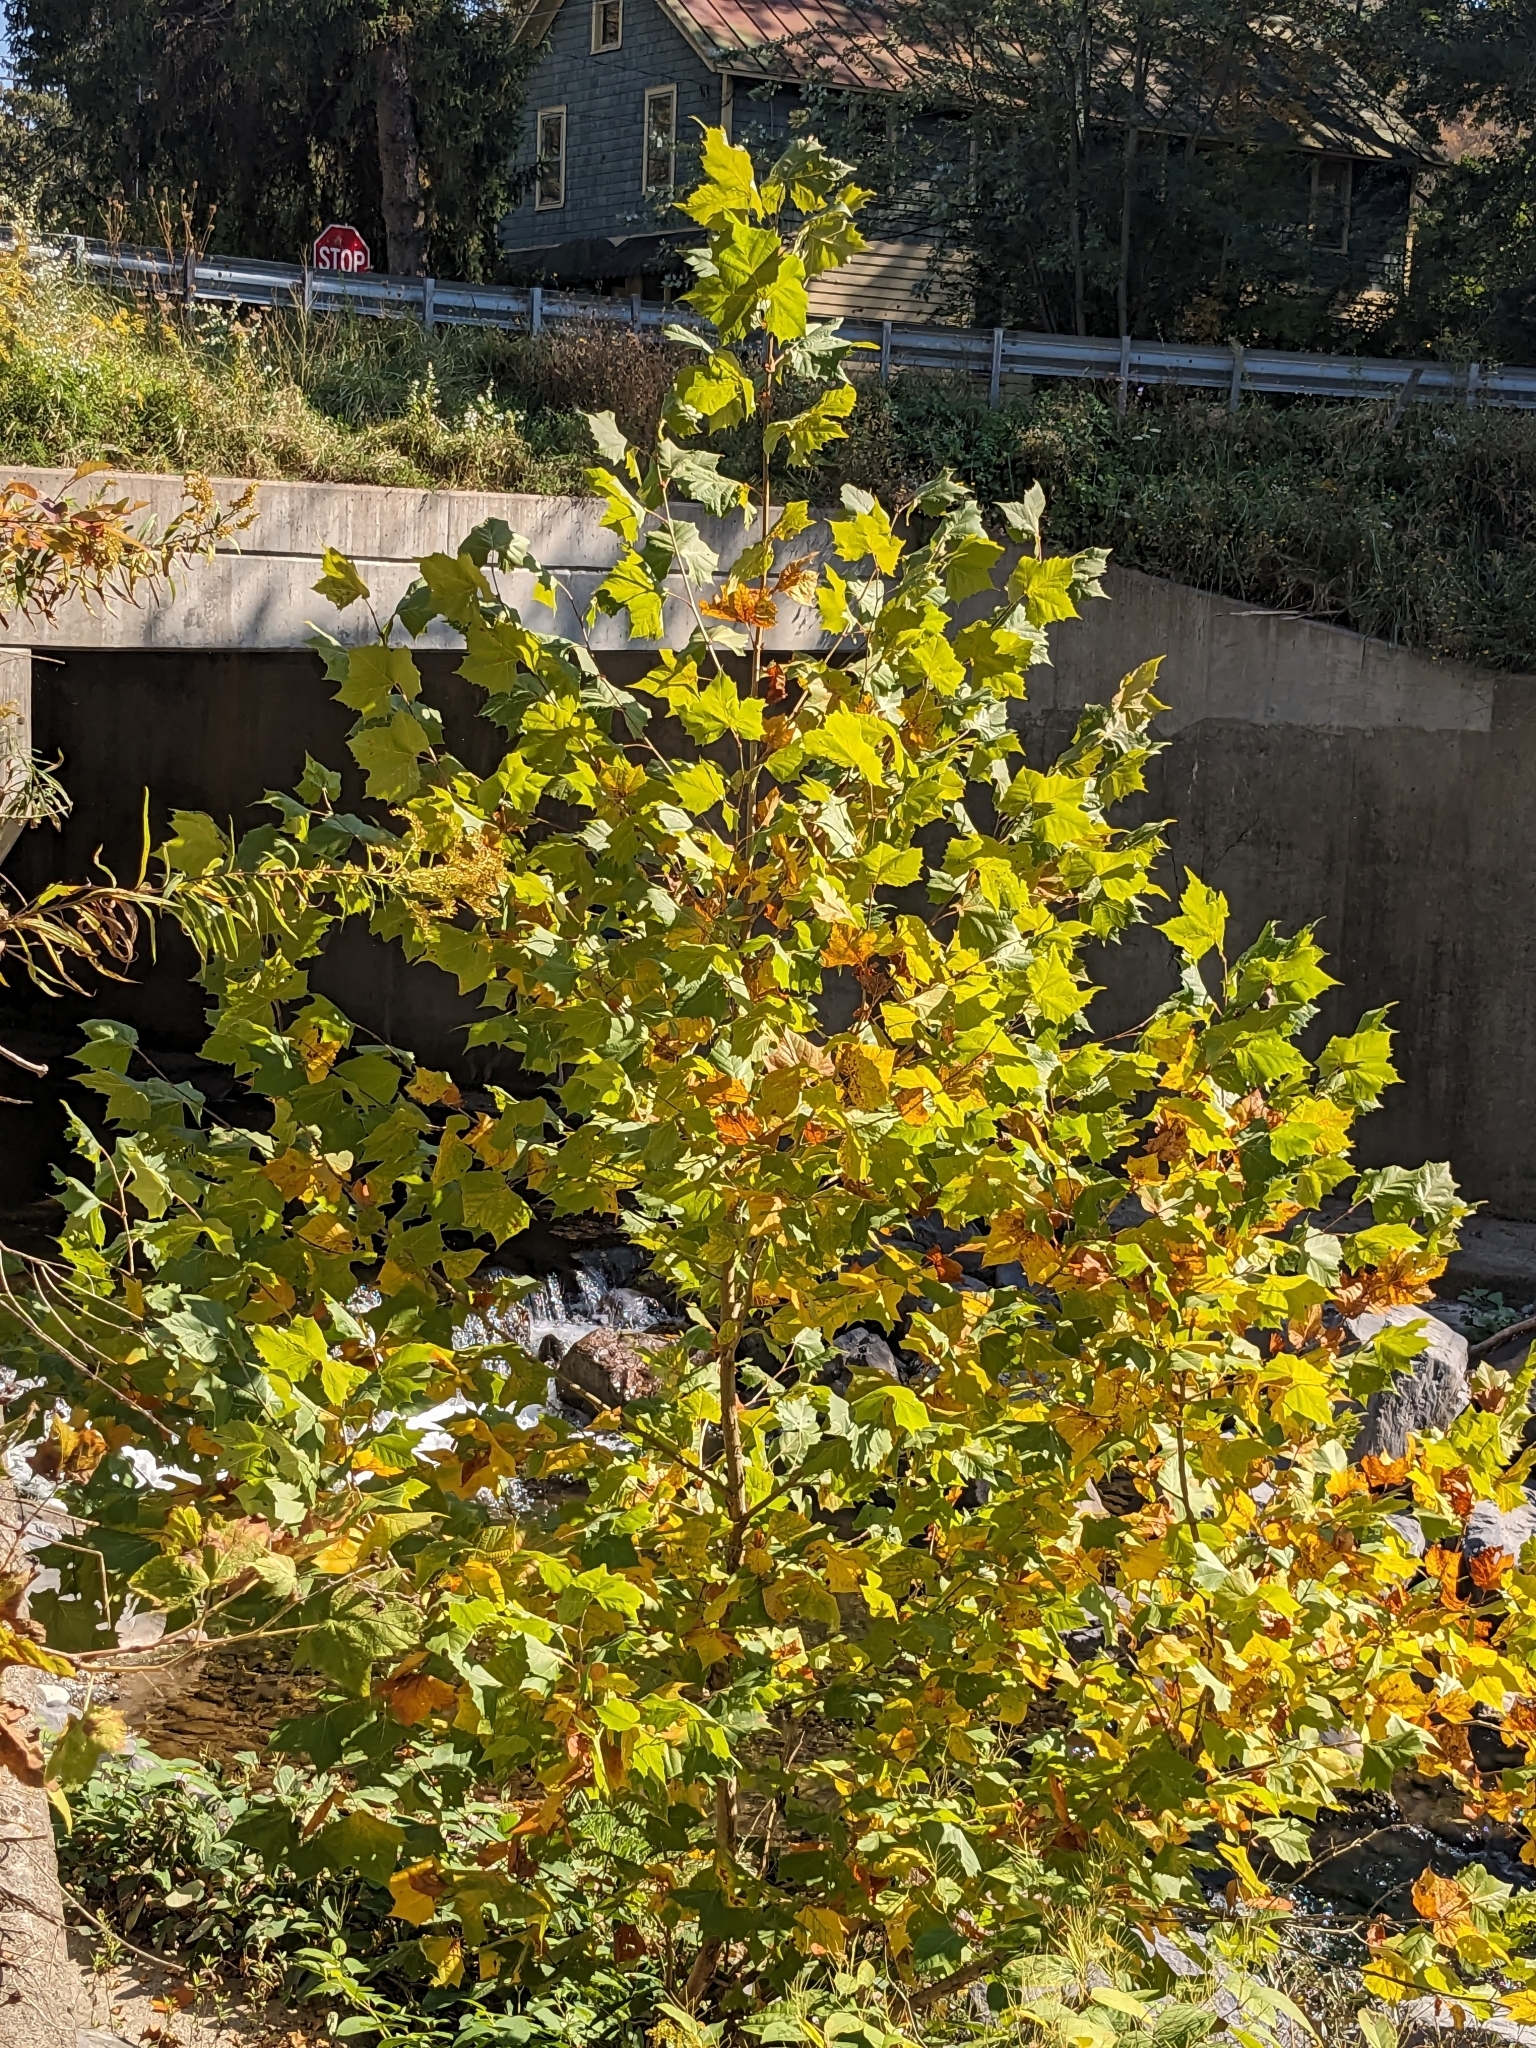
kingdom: Plantae
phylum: Tracheophyta
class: Magnoliopsida
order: Proteales
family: Platanaceae
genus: Platanus
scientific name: Platanus occidentalis
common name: American sycamore
